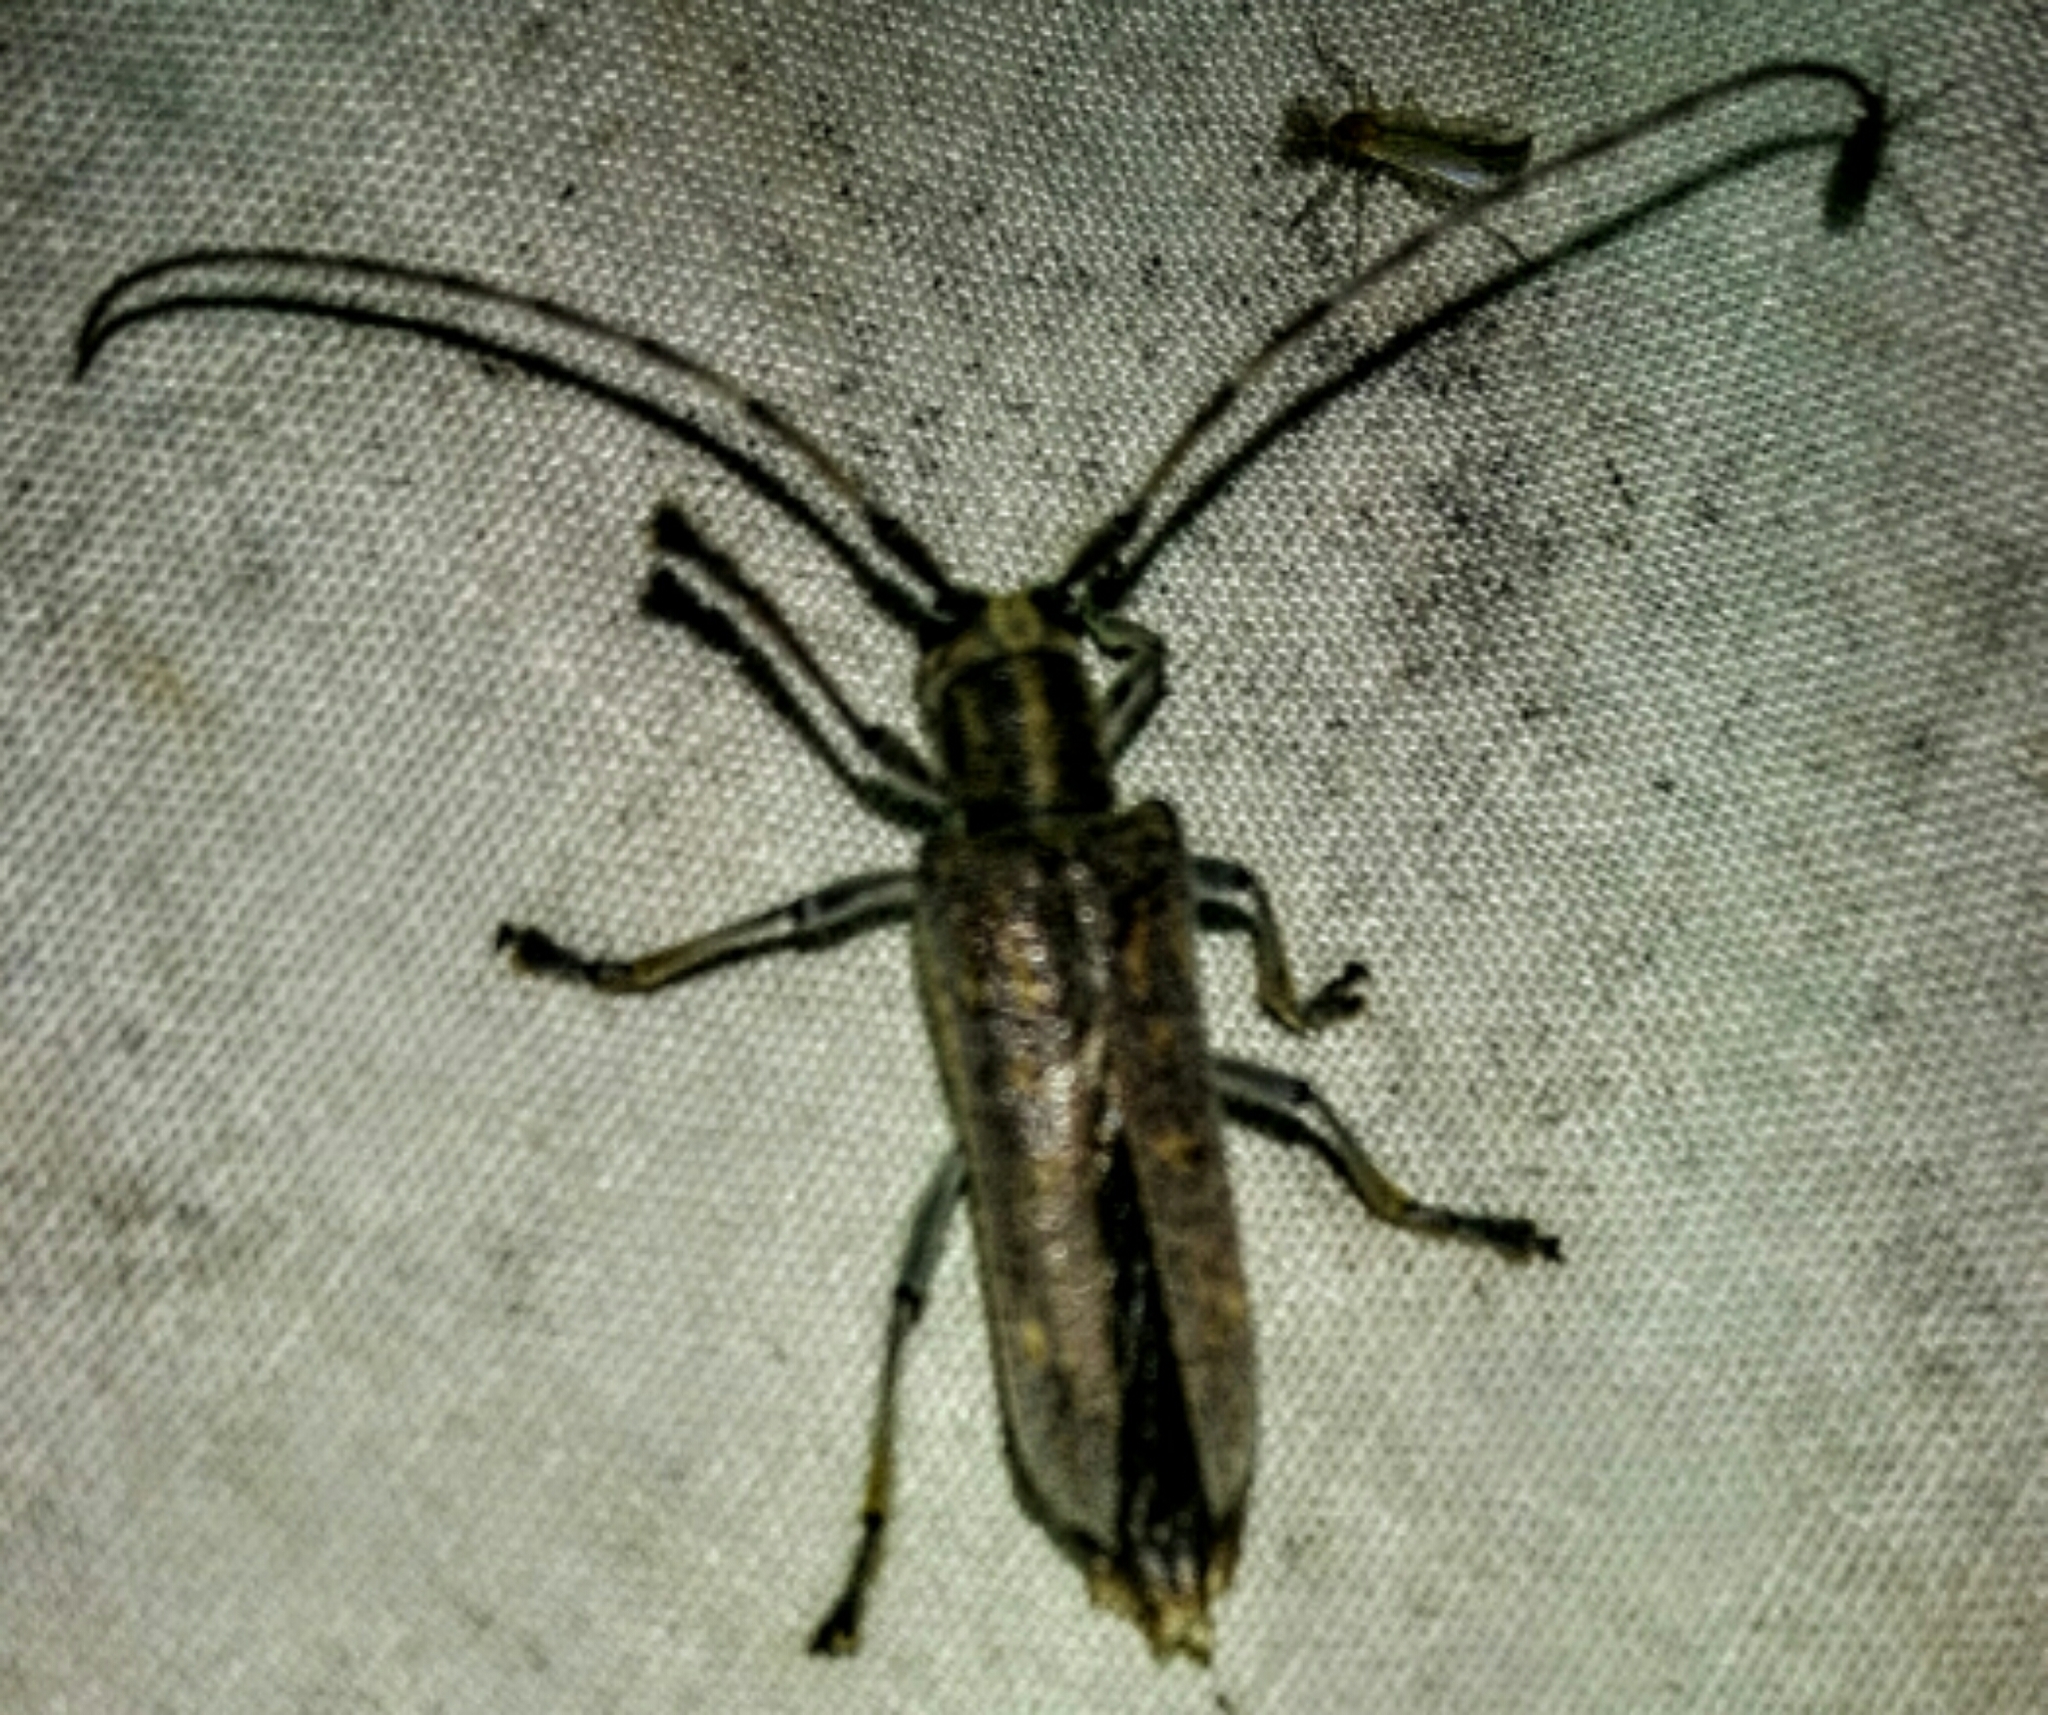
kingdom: Animalia
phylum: Arthropoda
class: Insecta
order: Coleoptera
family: Cerambycidae
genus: Saperda
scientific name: Saperda calcarata
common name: Poplar borer
